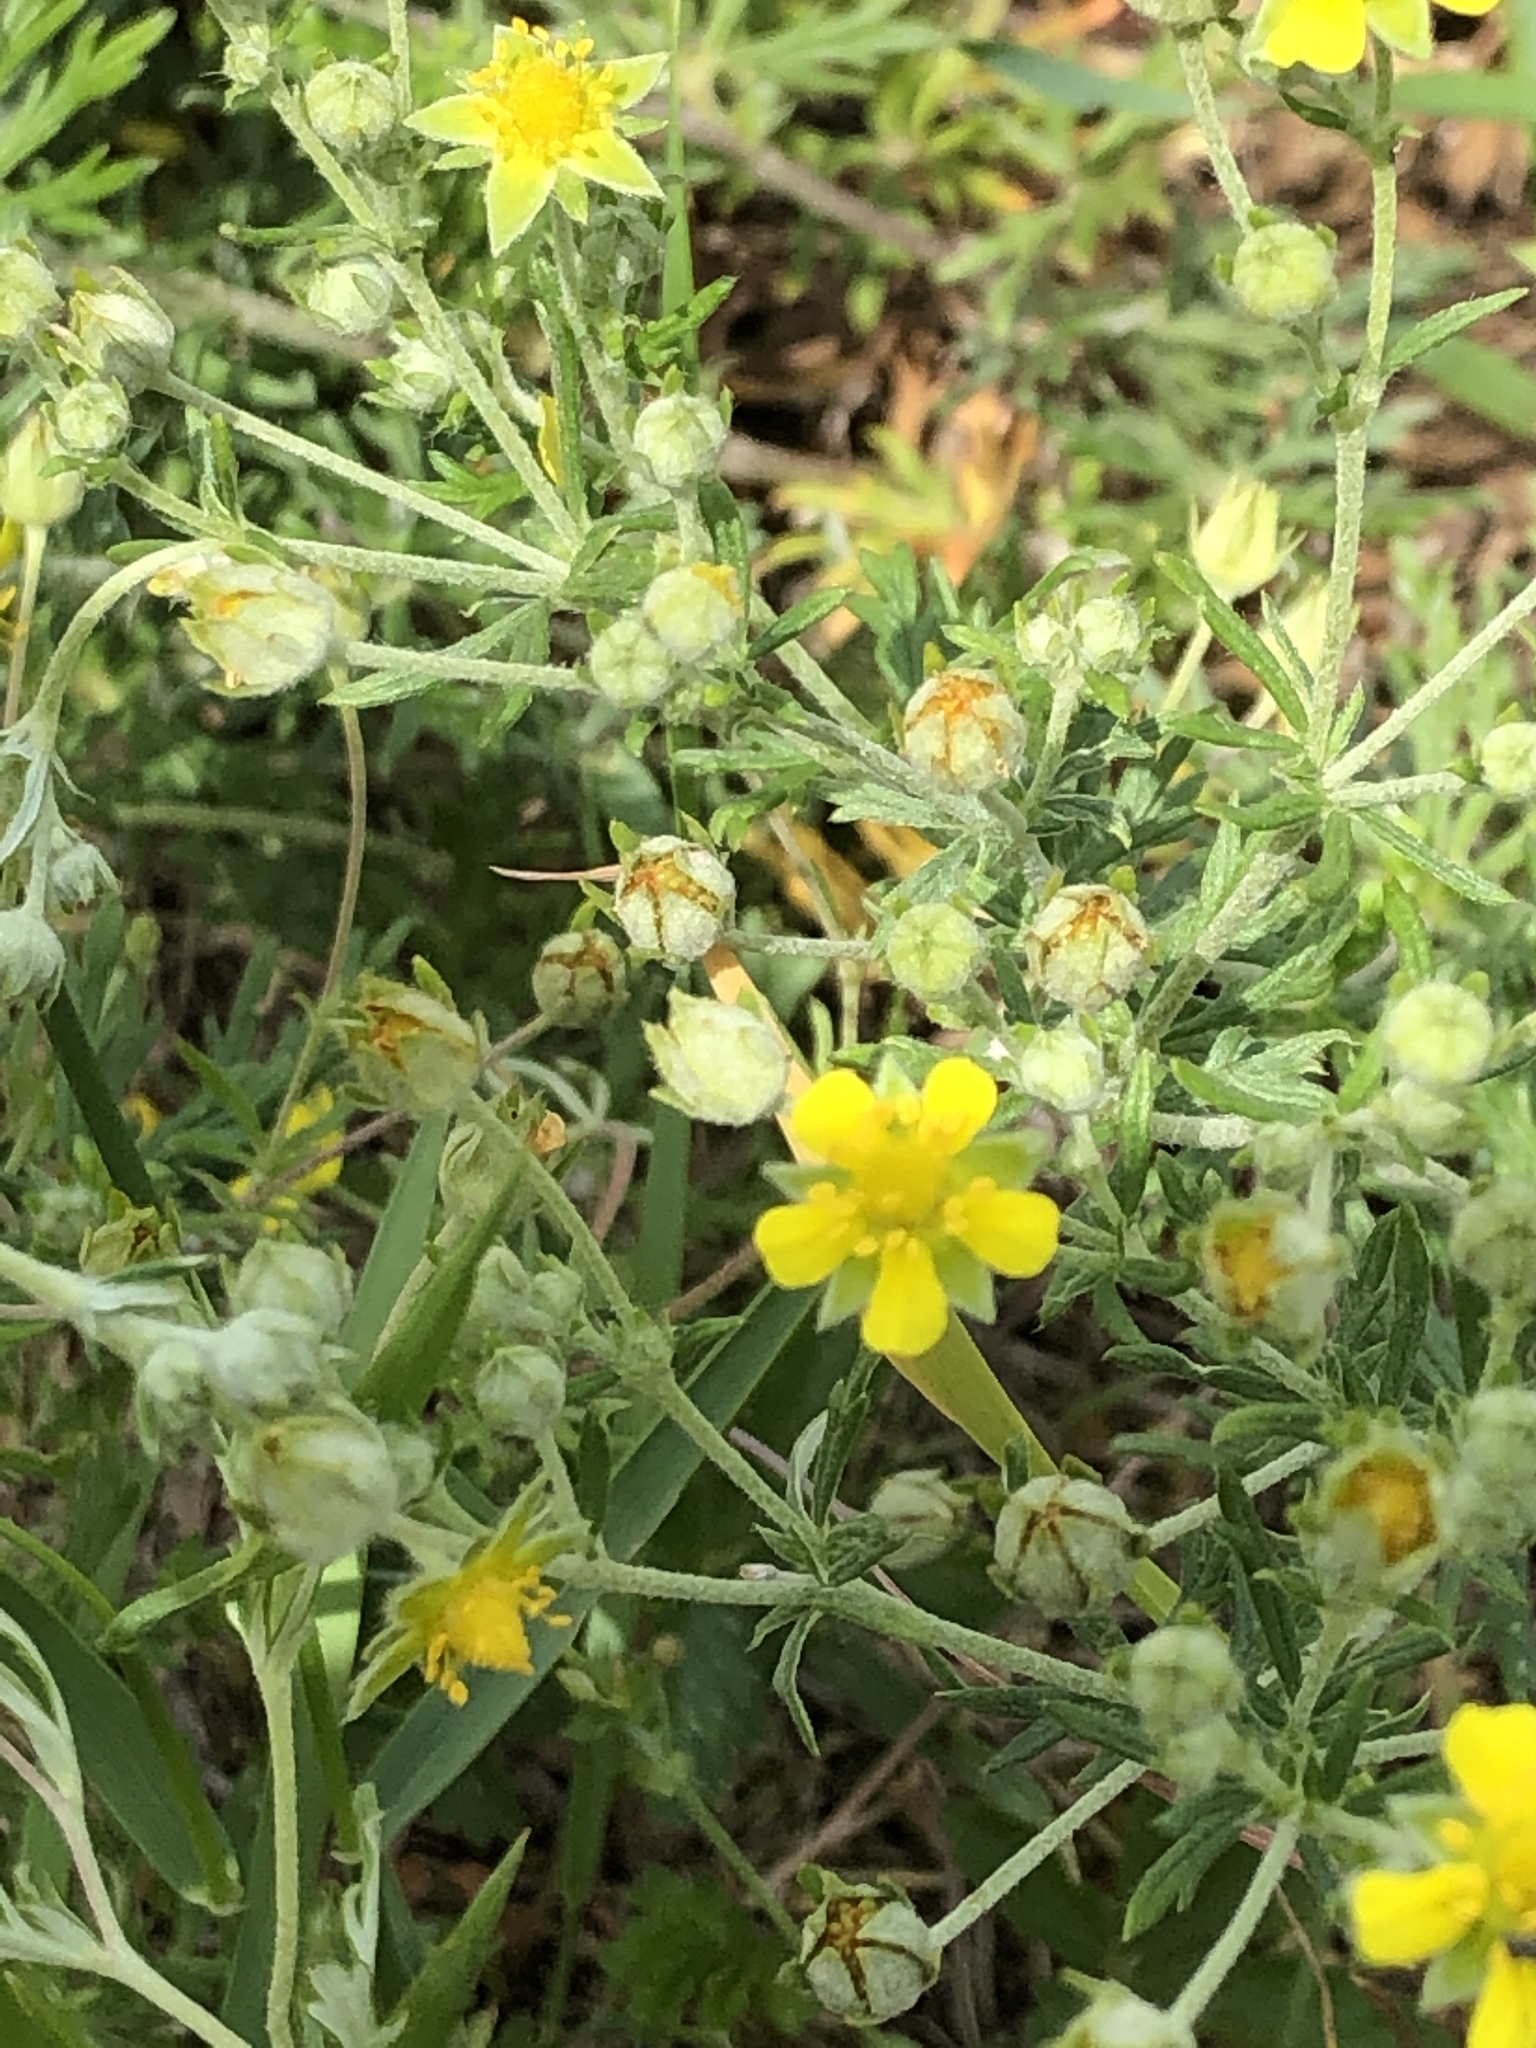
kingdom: Plantae
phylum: Tracheophyta
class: Magnoliopsida
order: Rosales
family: Rosaceae
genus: Potentilla
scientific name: Potentilla argentea
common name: Hoary cinquefoil
